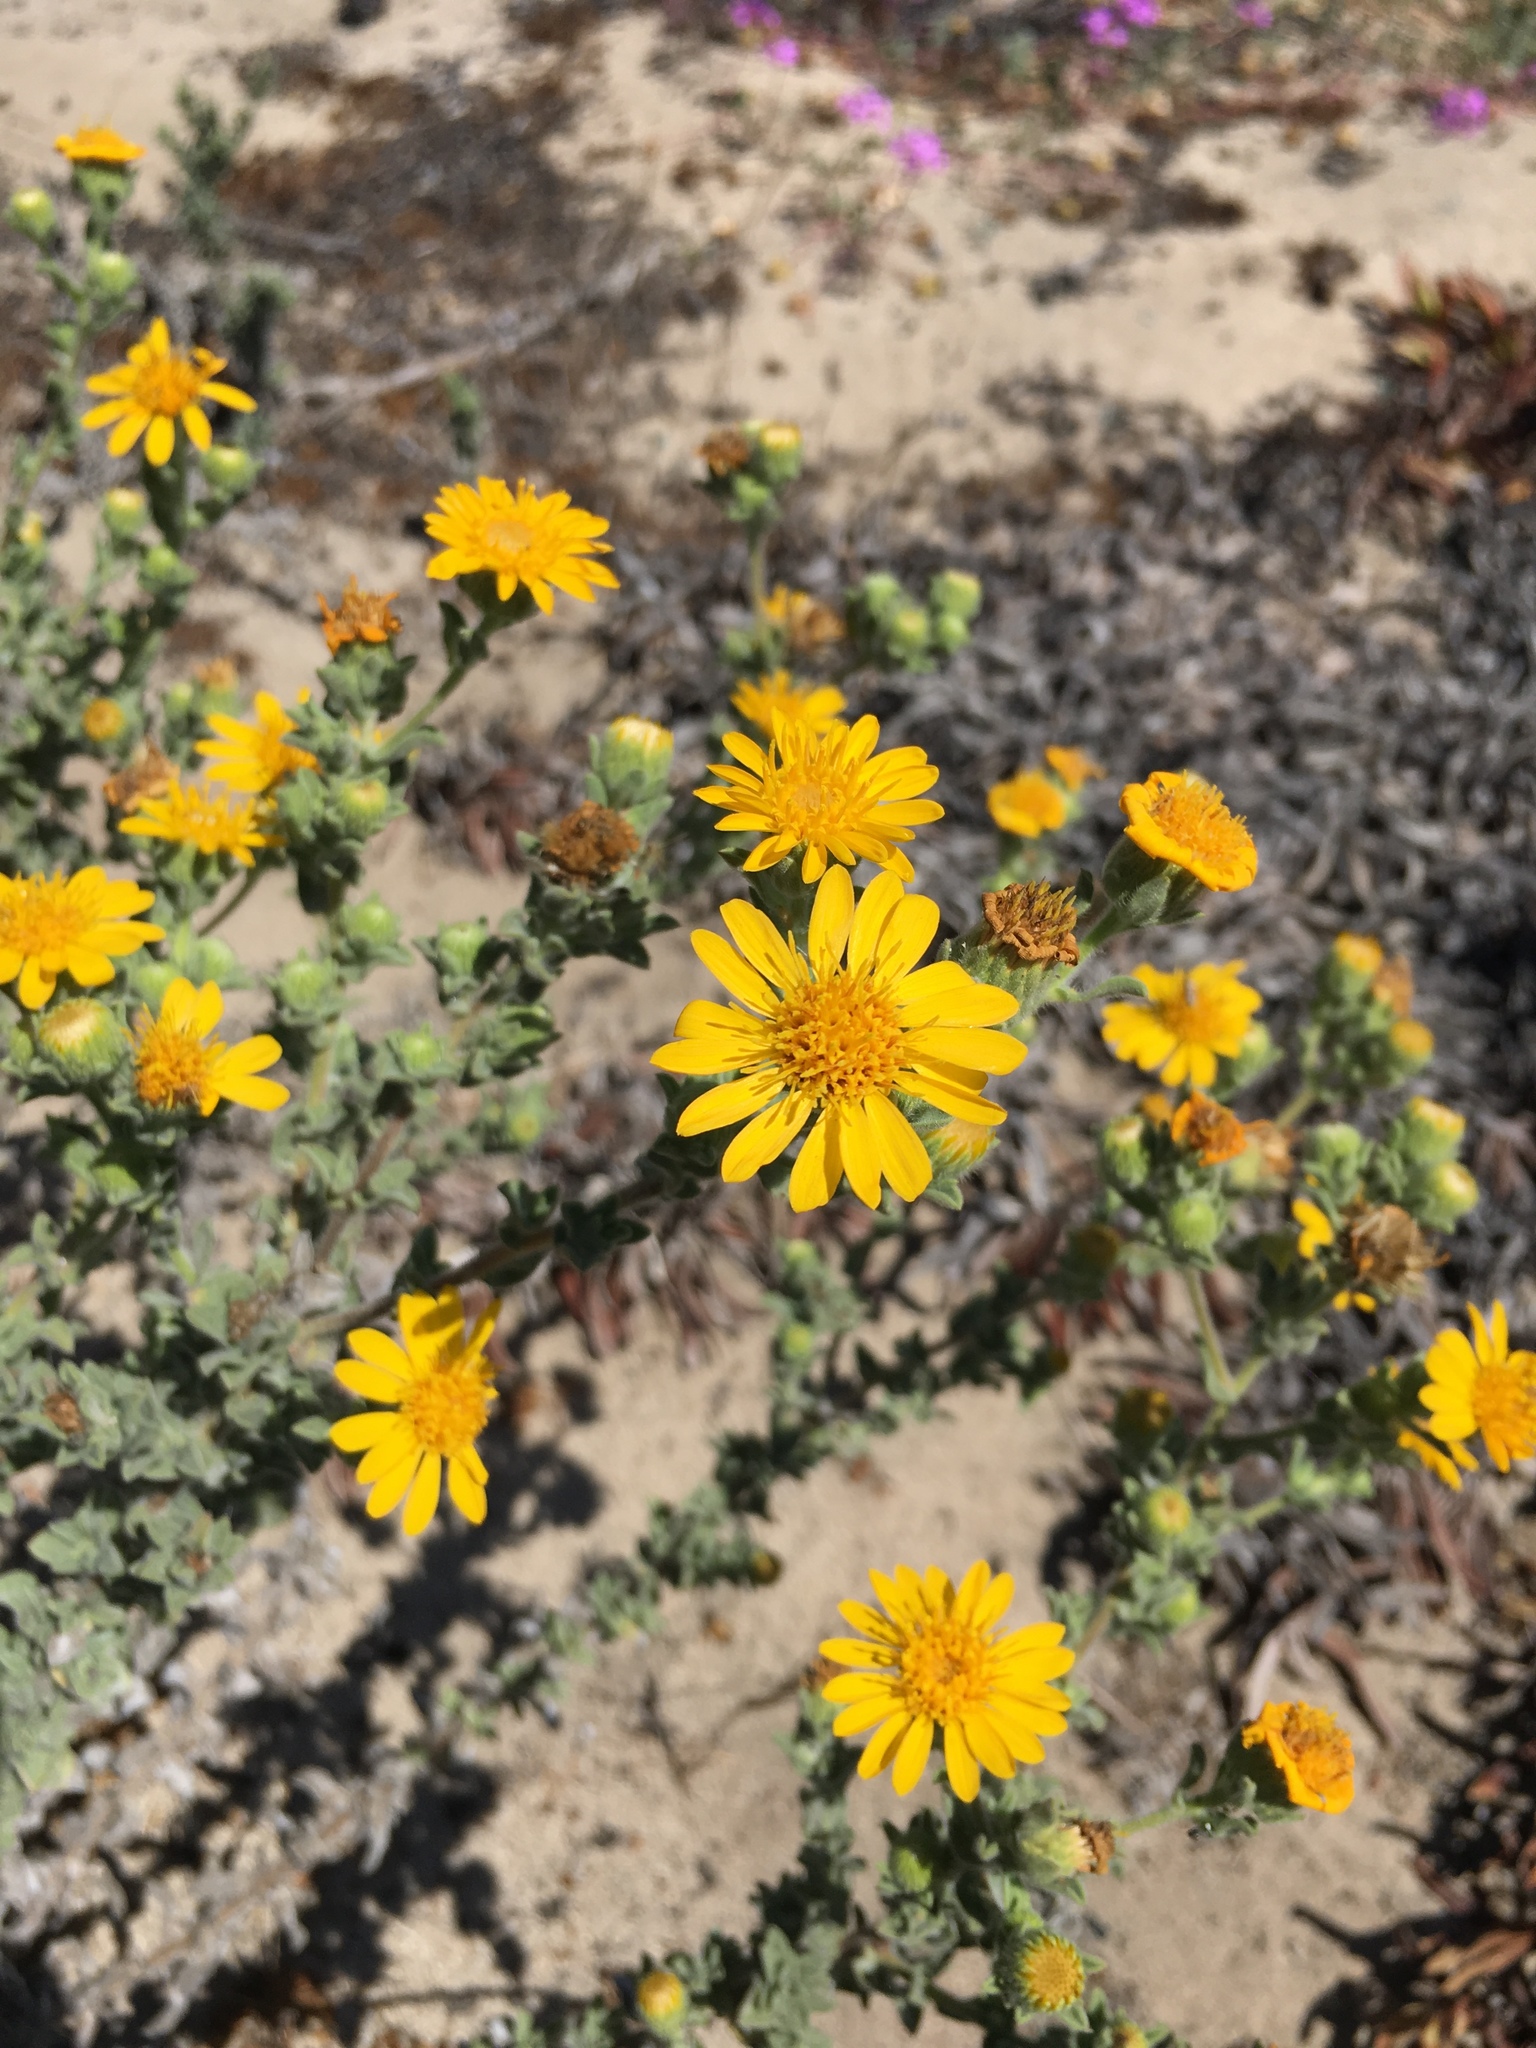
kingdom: Plantae
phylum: Tracheophyta
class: Magnoliopsida
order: Asterales
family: Asteraceae
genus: Heterotheca
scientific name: Heterotheca sessiliflora
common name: Sessile-flower golden-aster
